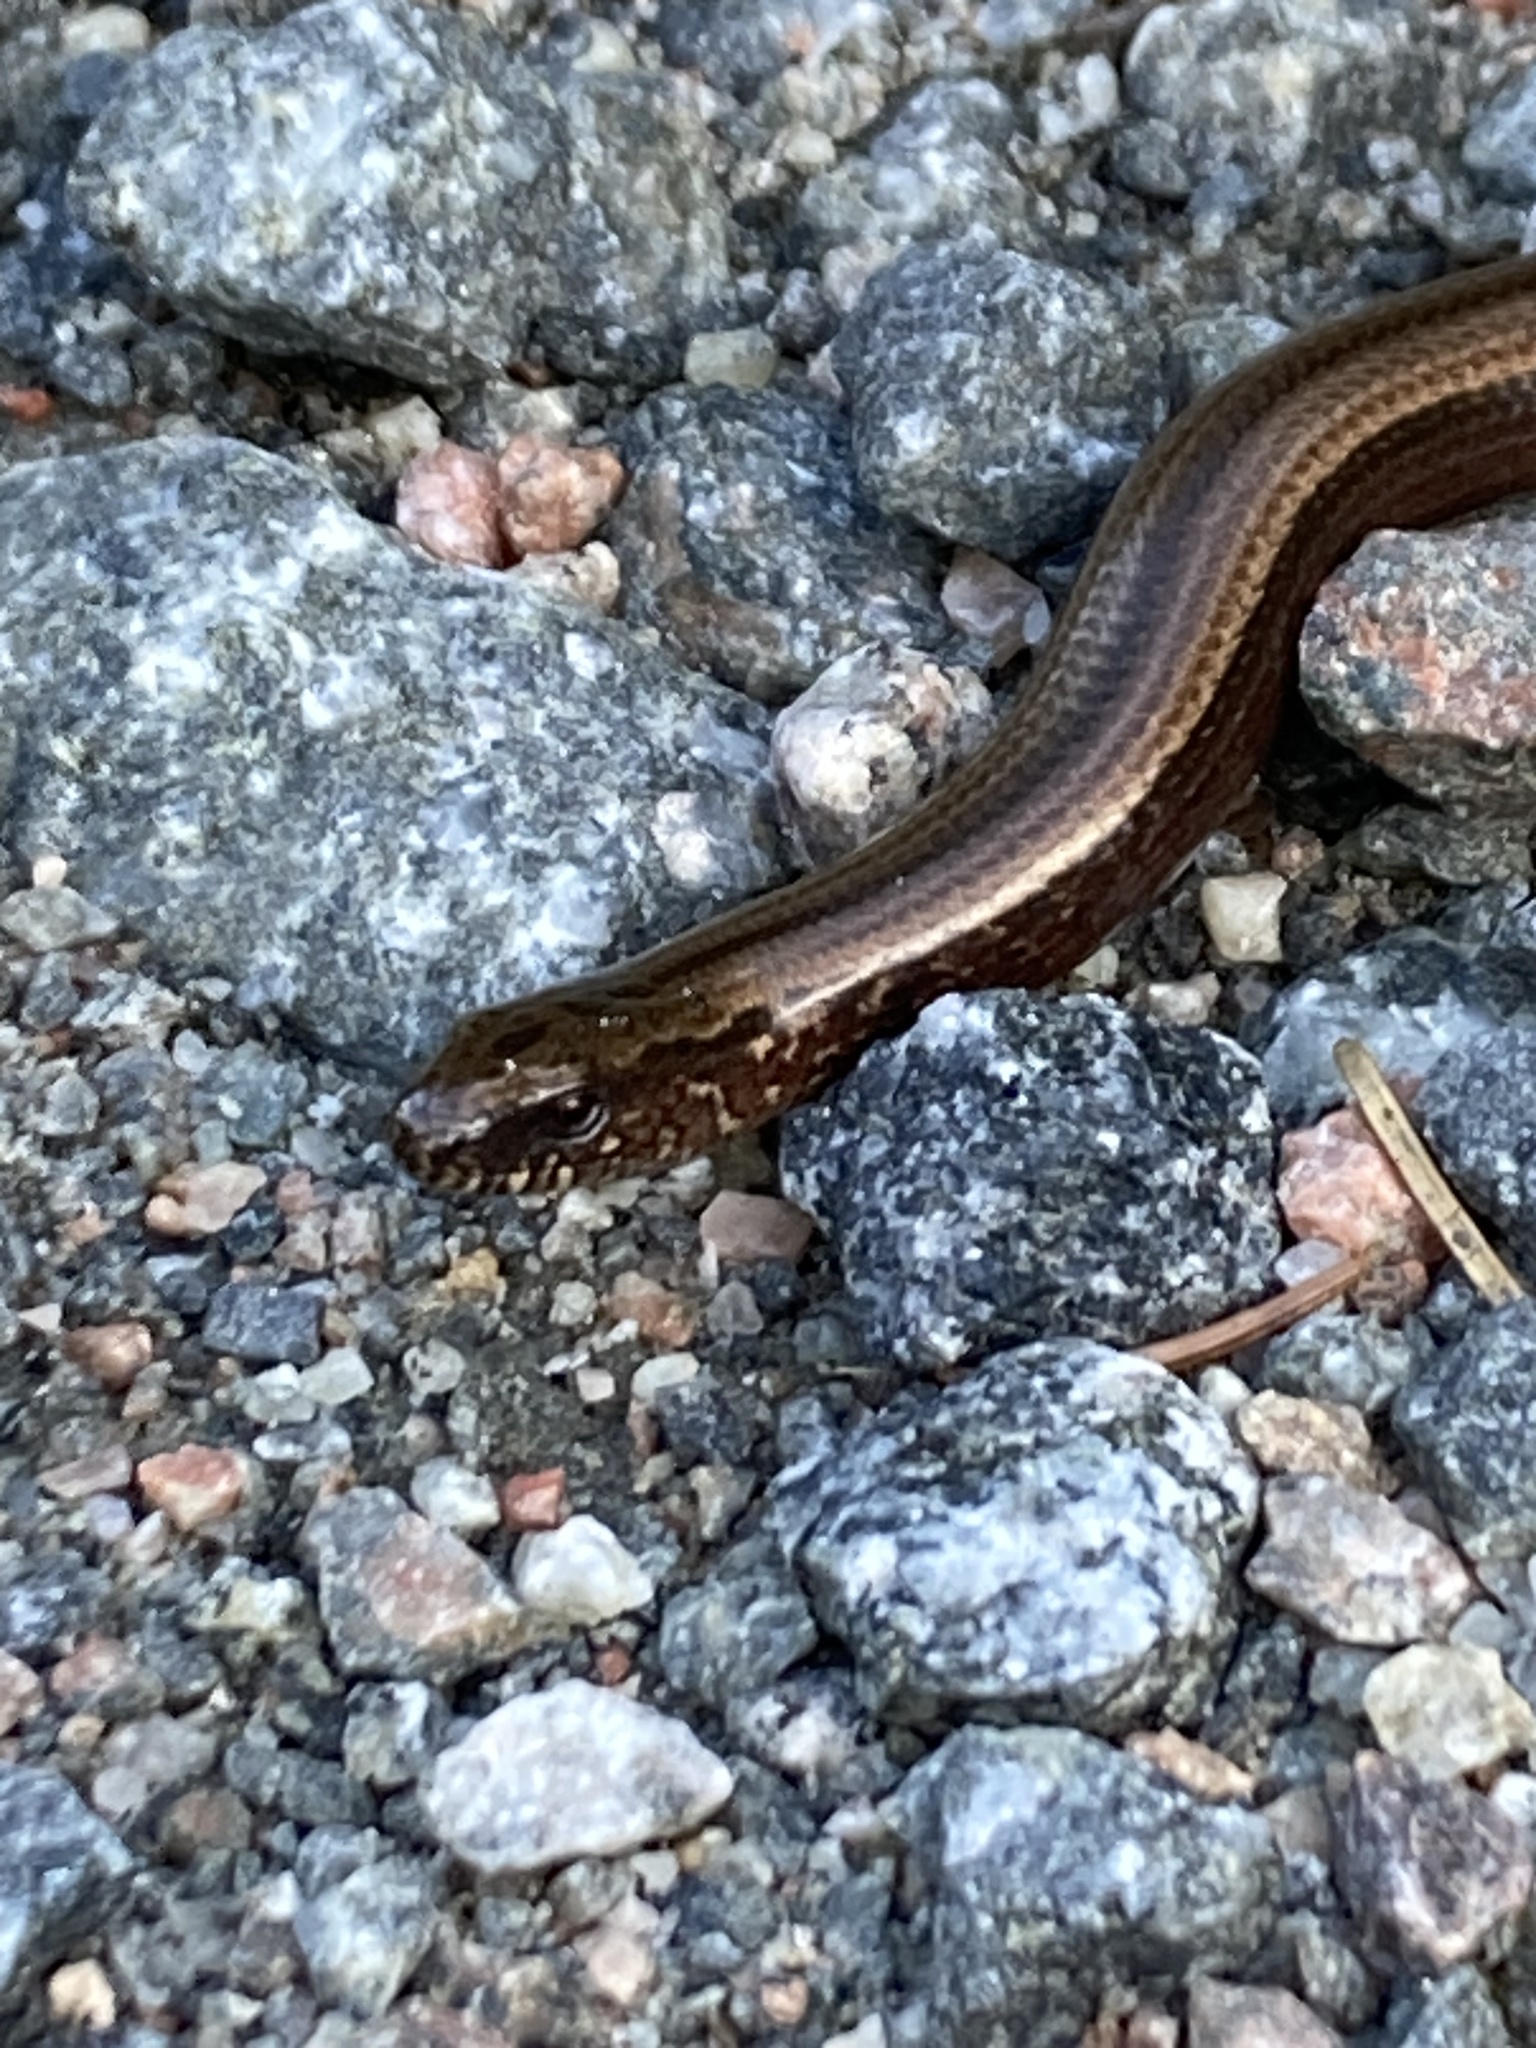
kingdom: Animalia
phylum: Chordata
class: Squamata
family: Anguidae
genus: Anguis
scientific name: Anguis fragilis
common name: Slow worm
